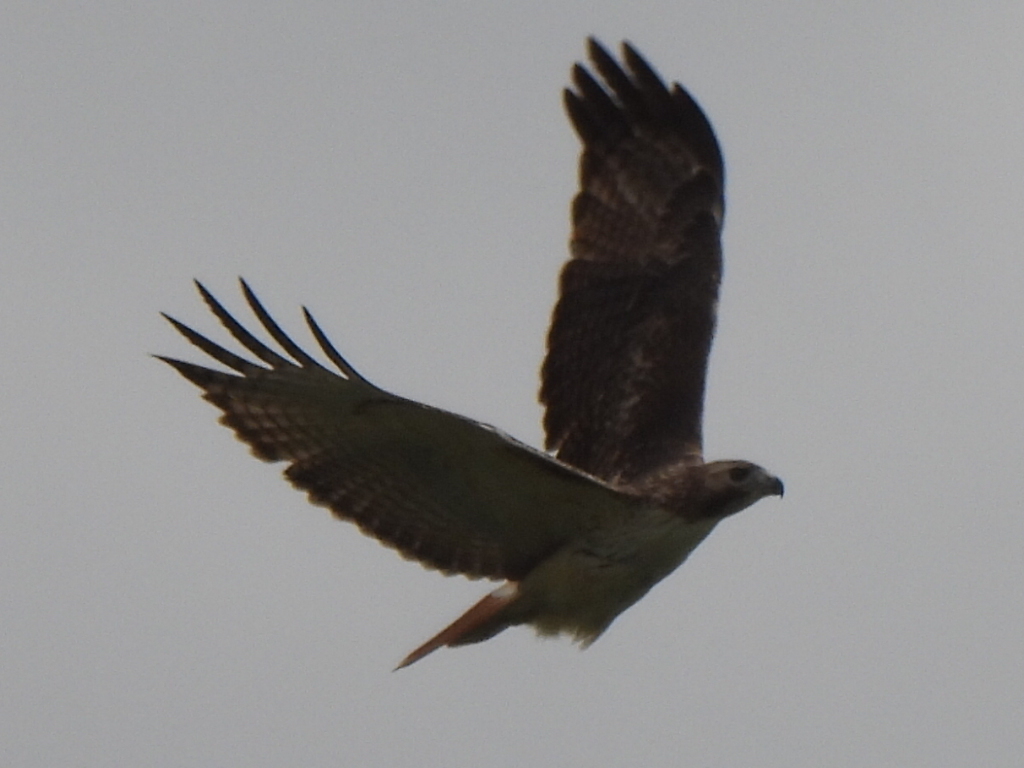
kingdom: Animalia
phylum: Chordata
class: Aves
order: Accipitriformes
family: Accipitridae
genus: Buteo
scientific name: Buteo jamaicensis
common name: Red-tailed hawk
